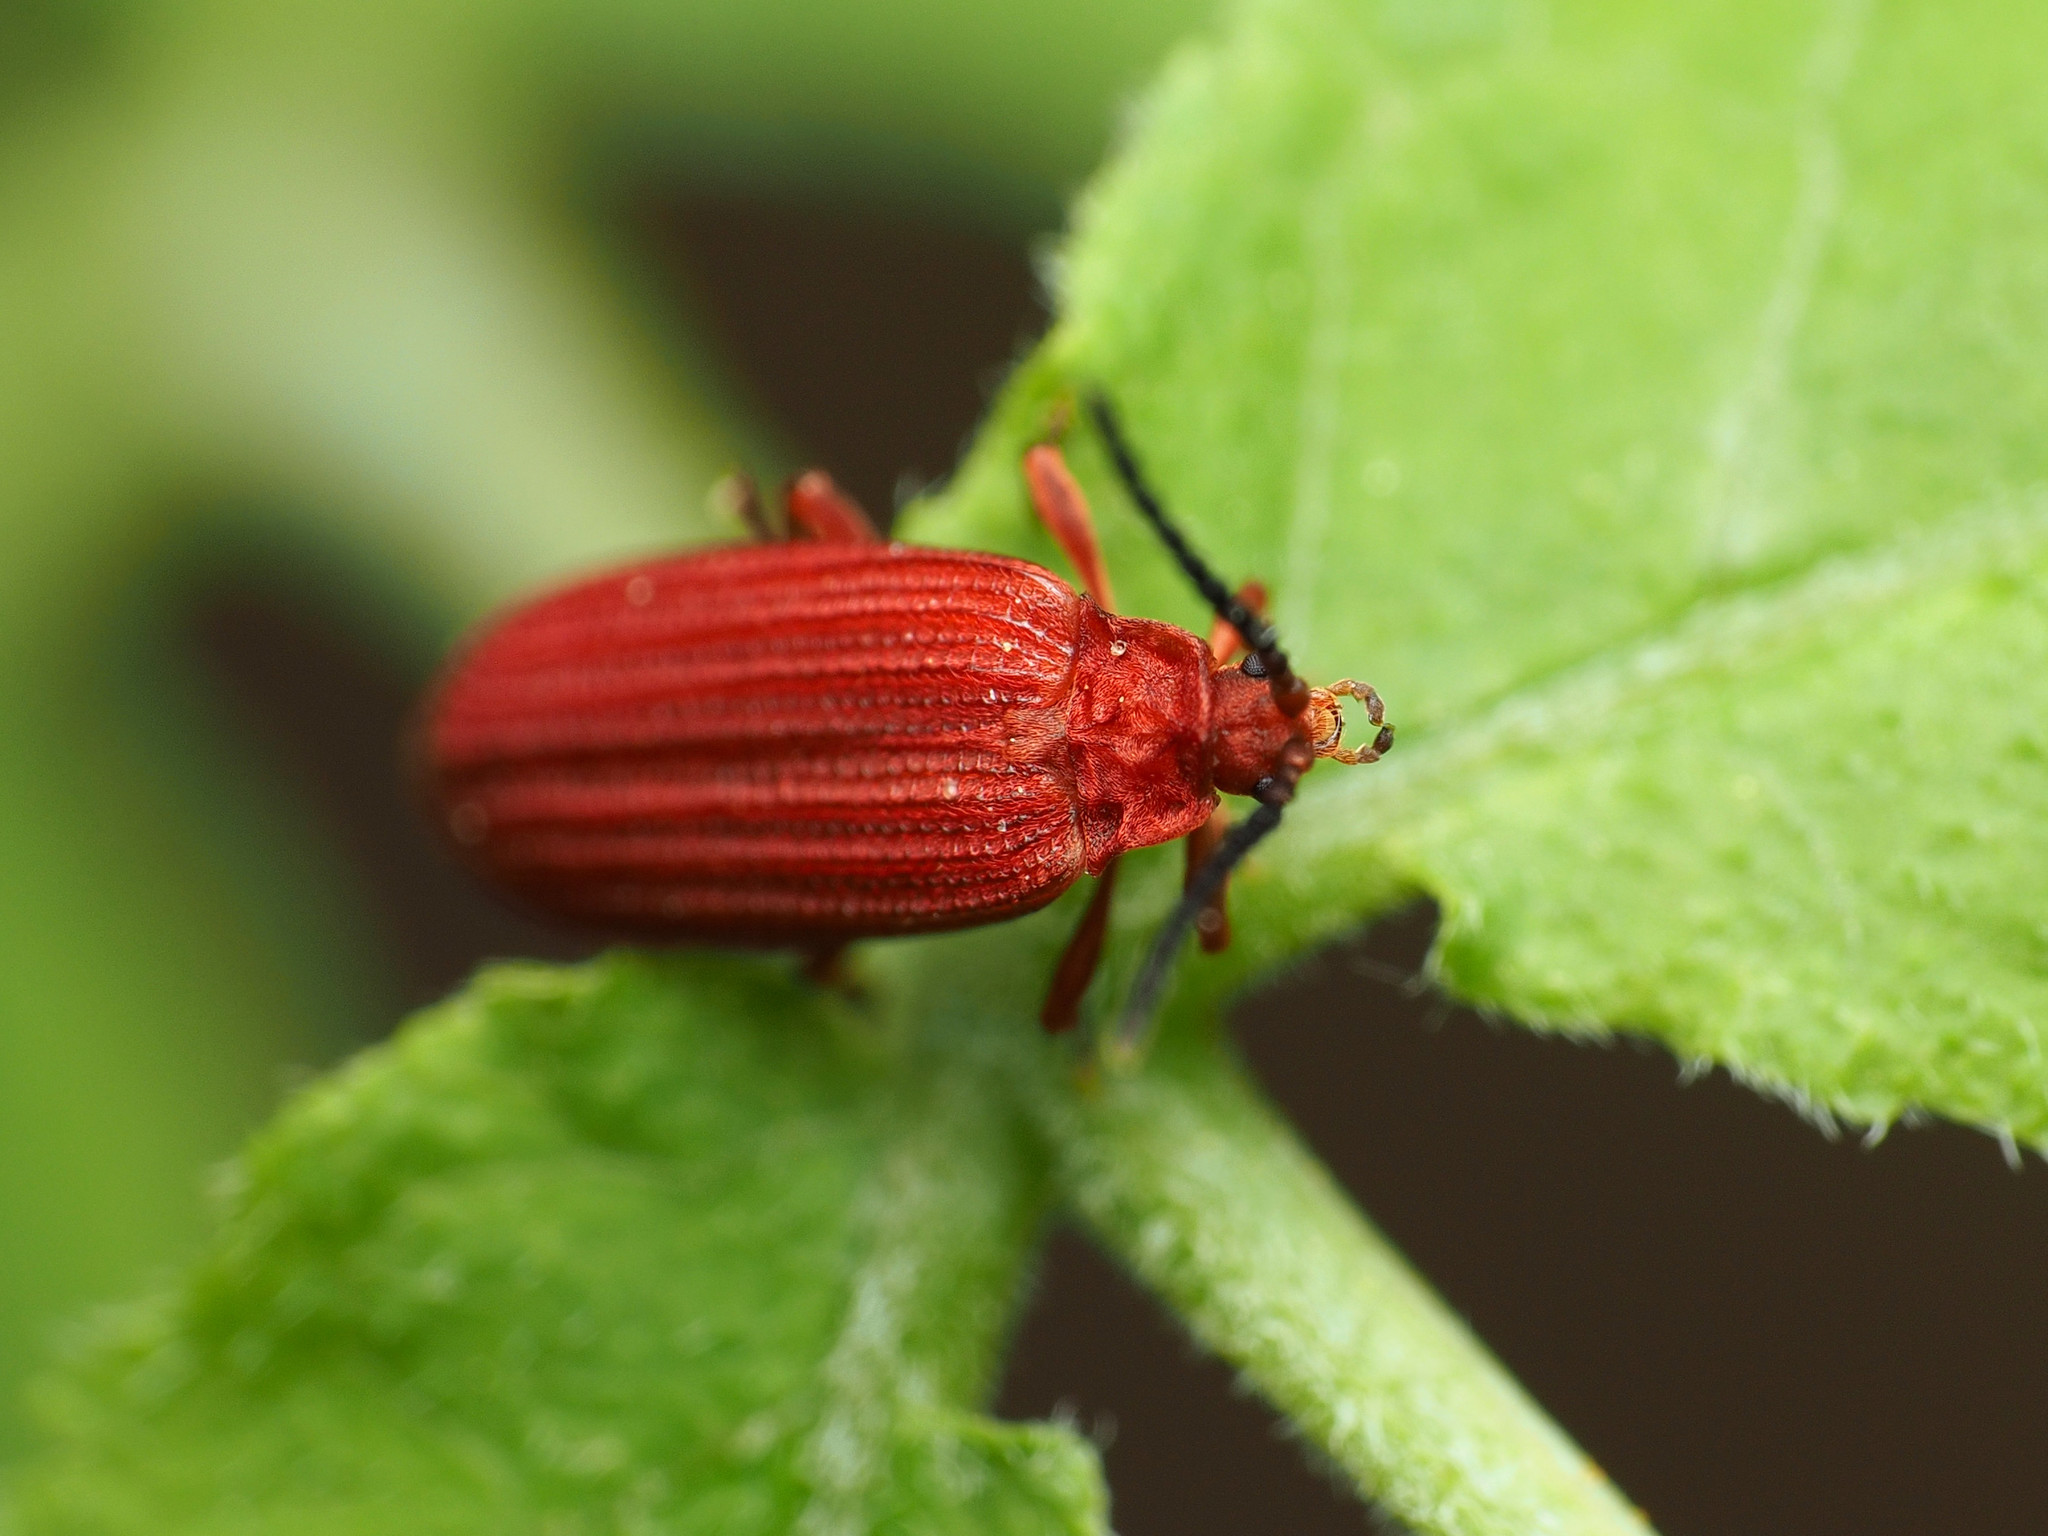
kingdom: Animalia
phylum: Arthropoda
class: Insecta
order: Coleoptera
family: Lycidae
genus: Punicealis
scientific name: Punicealis
